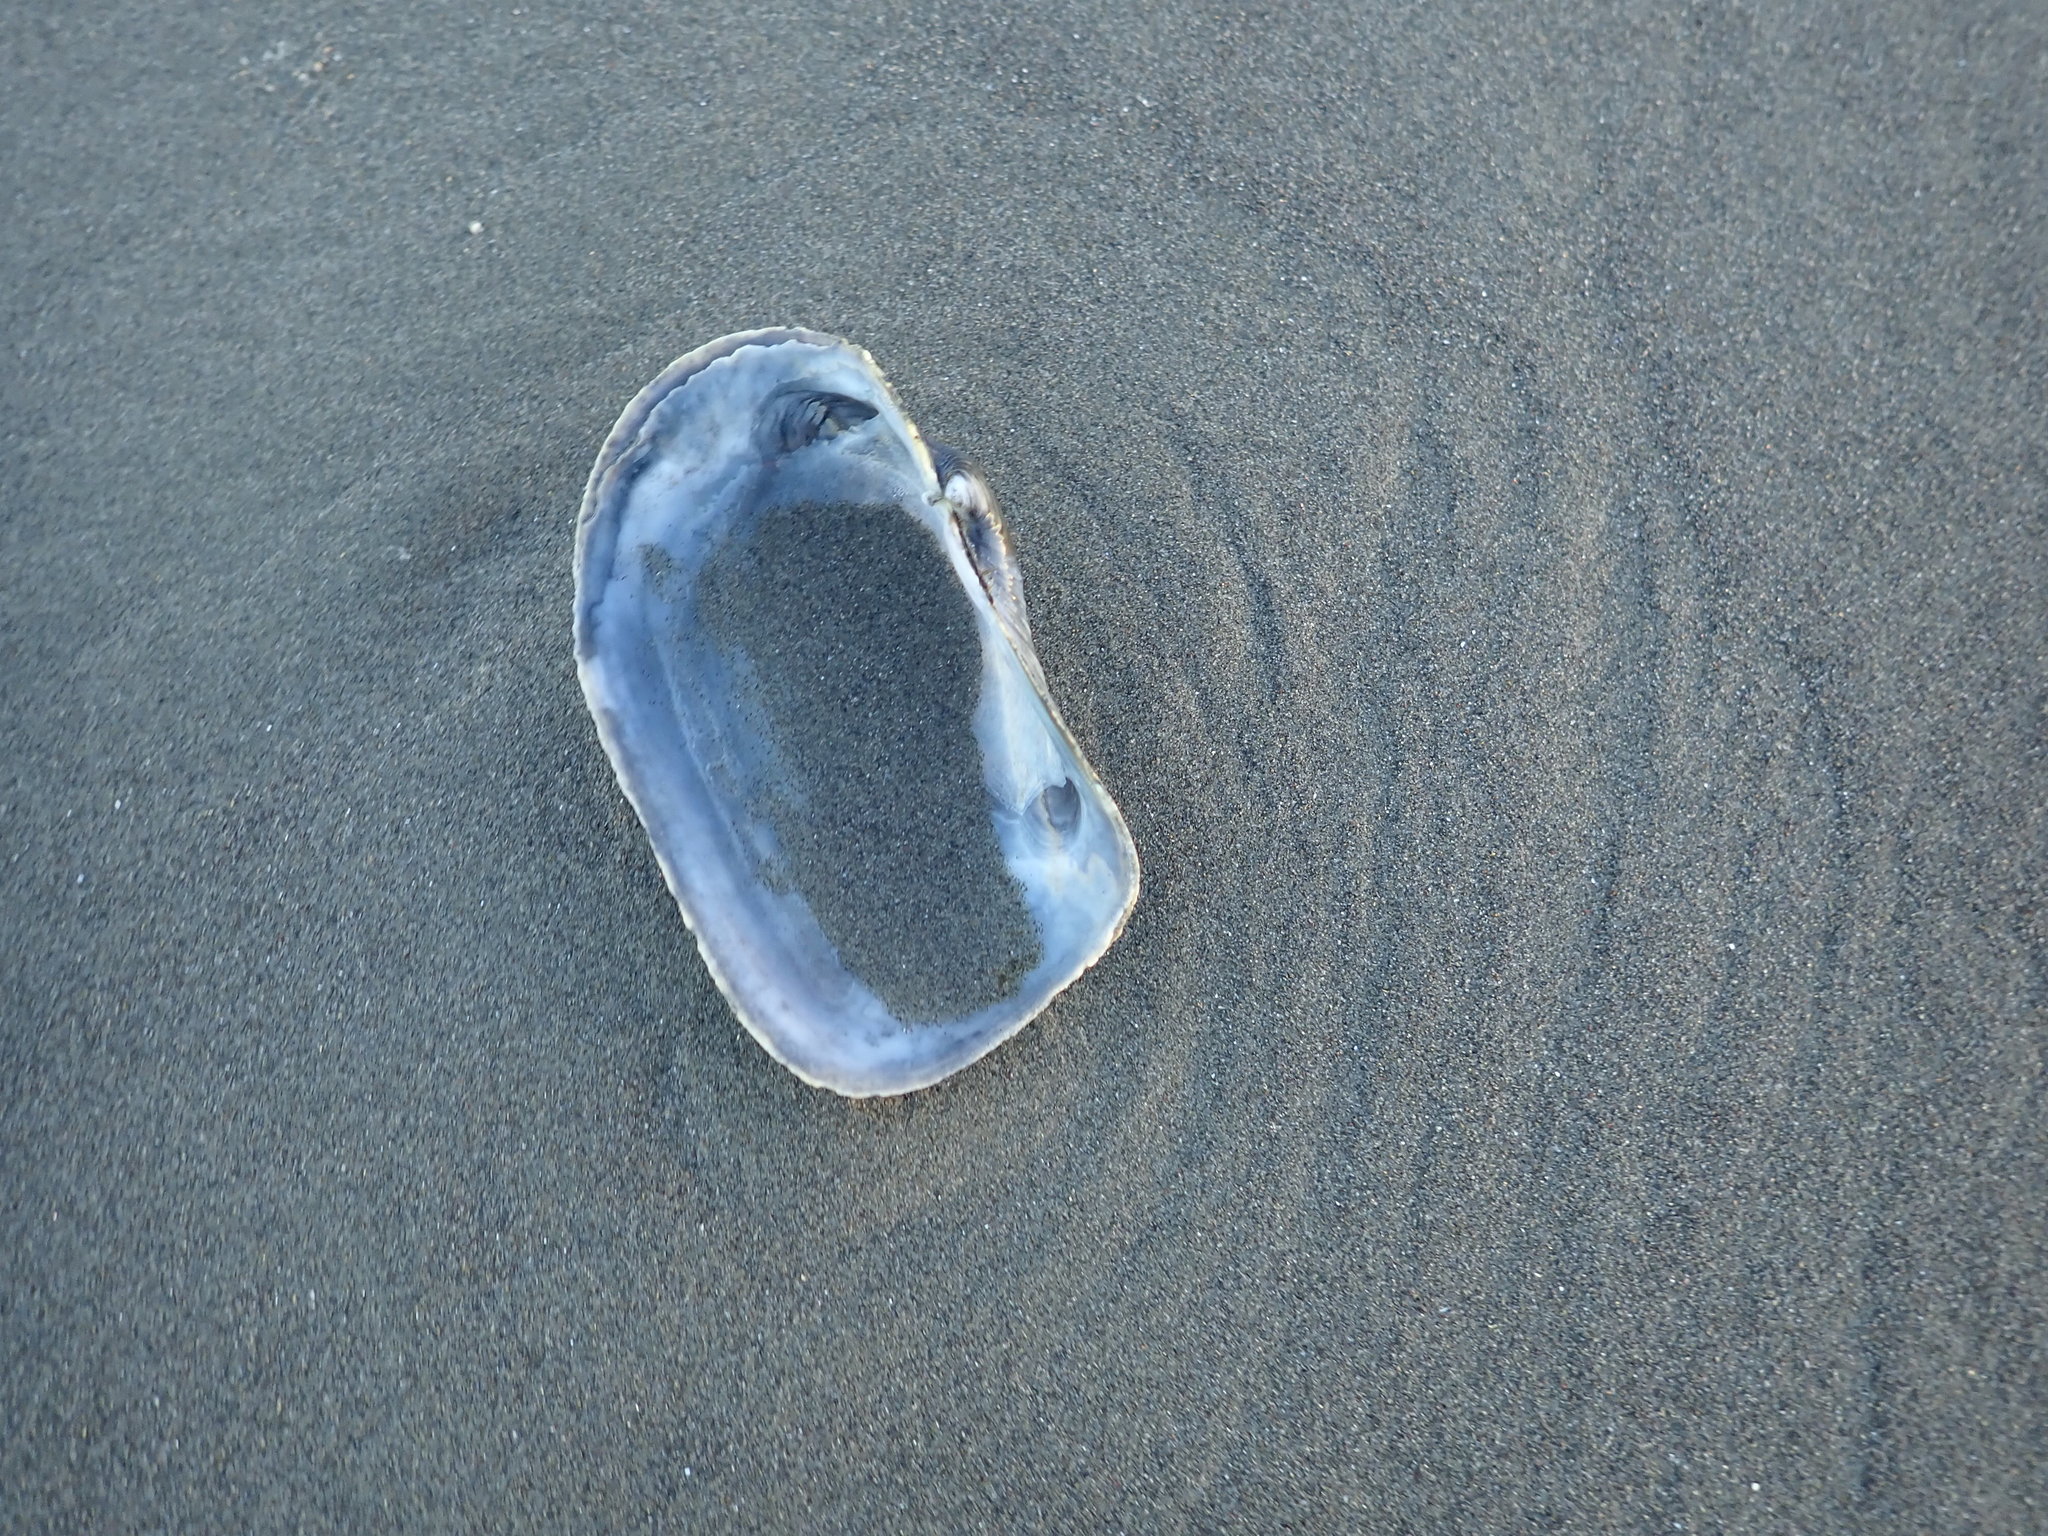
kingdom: Animalia
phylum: Mollusca
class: Bivalvia
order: Adapedonta
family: Hiatellidae
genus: Panopea
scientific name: Panopea zelandica
